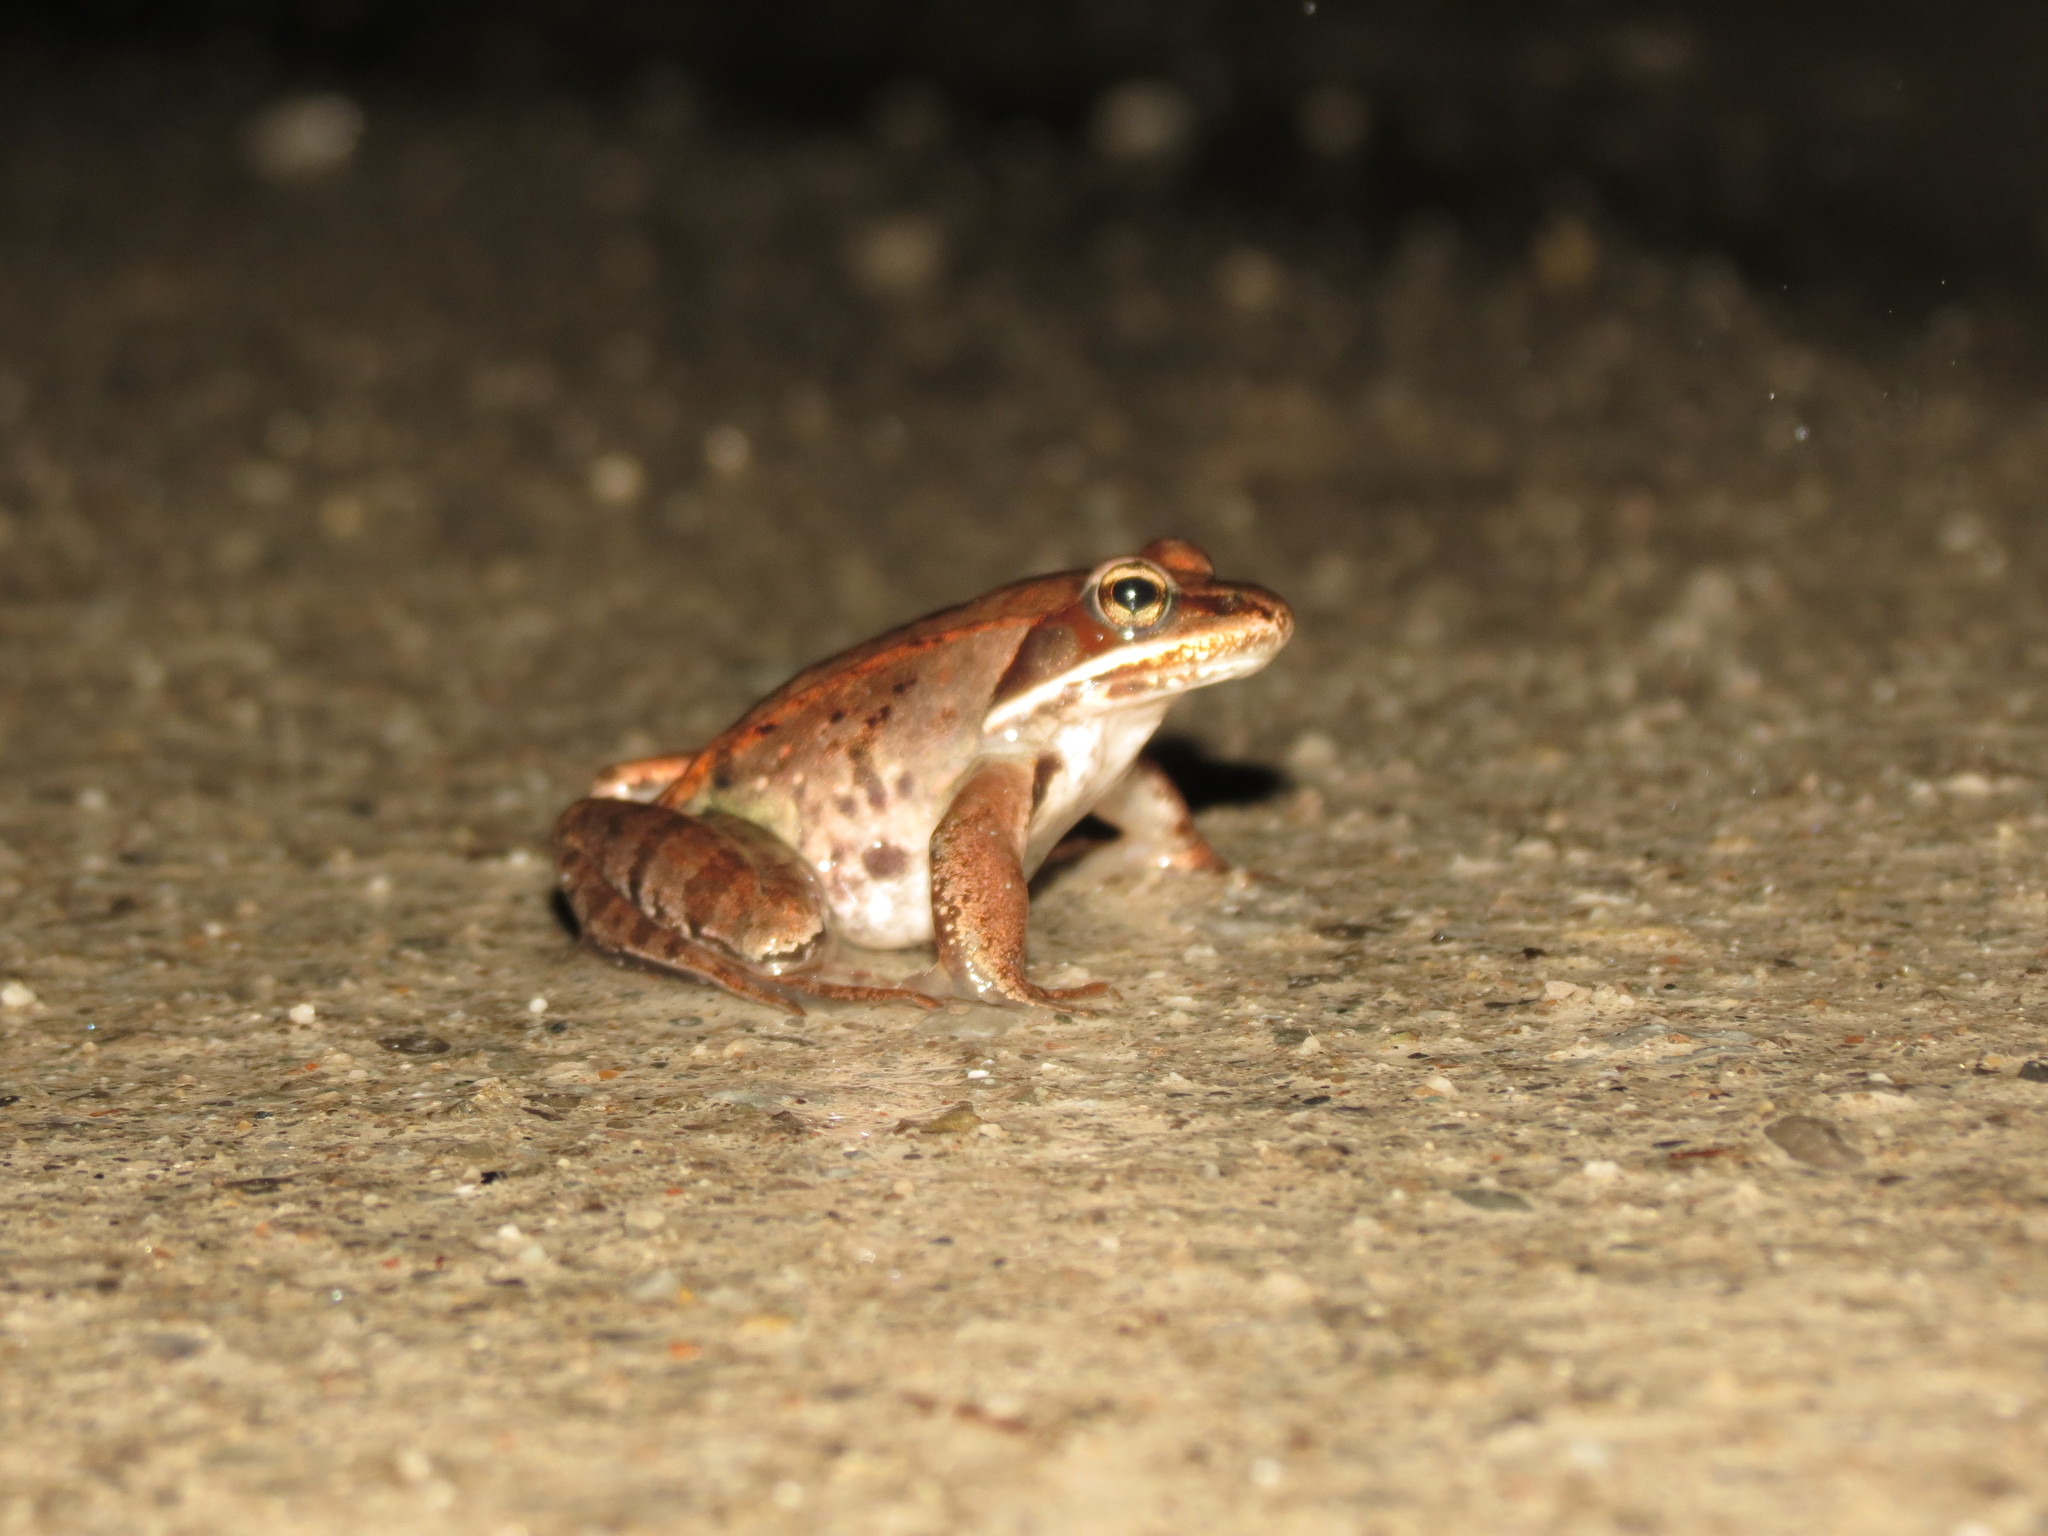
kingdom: Animalia
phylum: Chordata
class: Amphibia
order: Anura
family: Ranidae
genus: Lithobates
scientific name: Lithobates sylvaticus
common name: Wood frog
